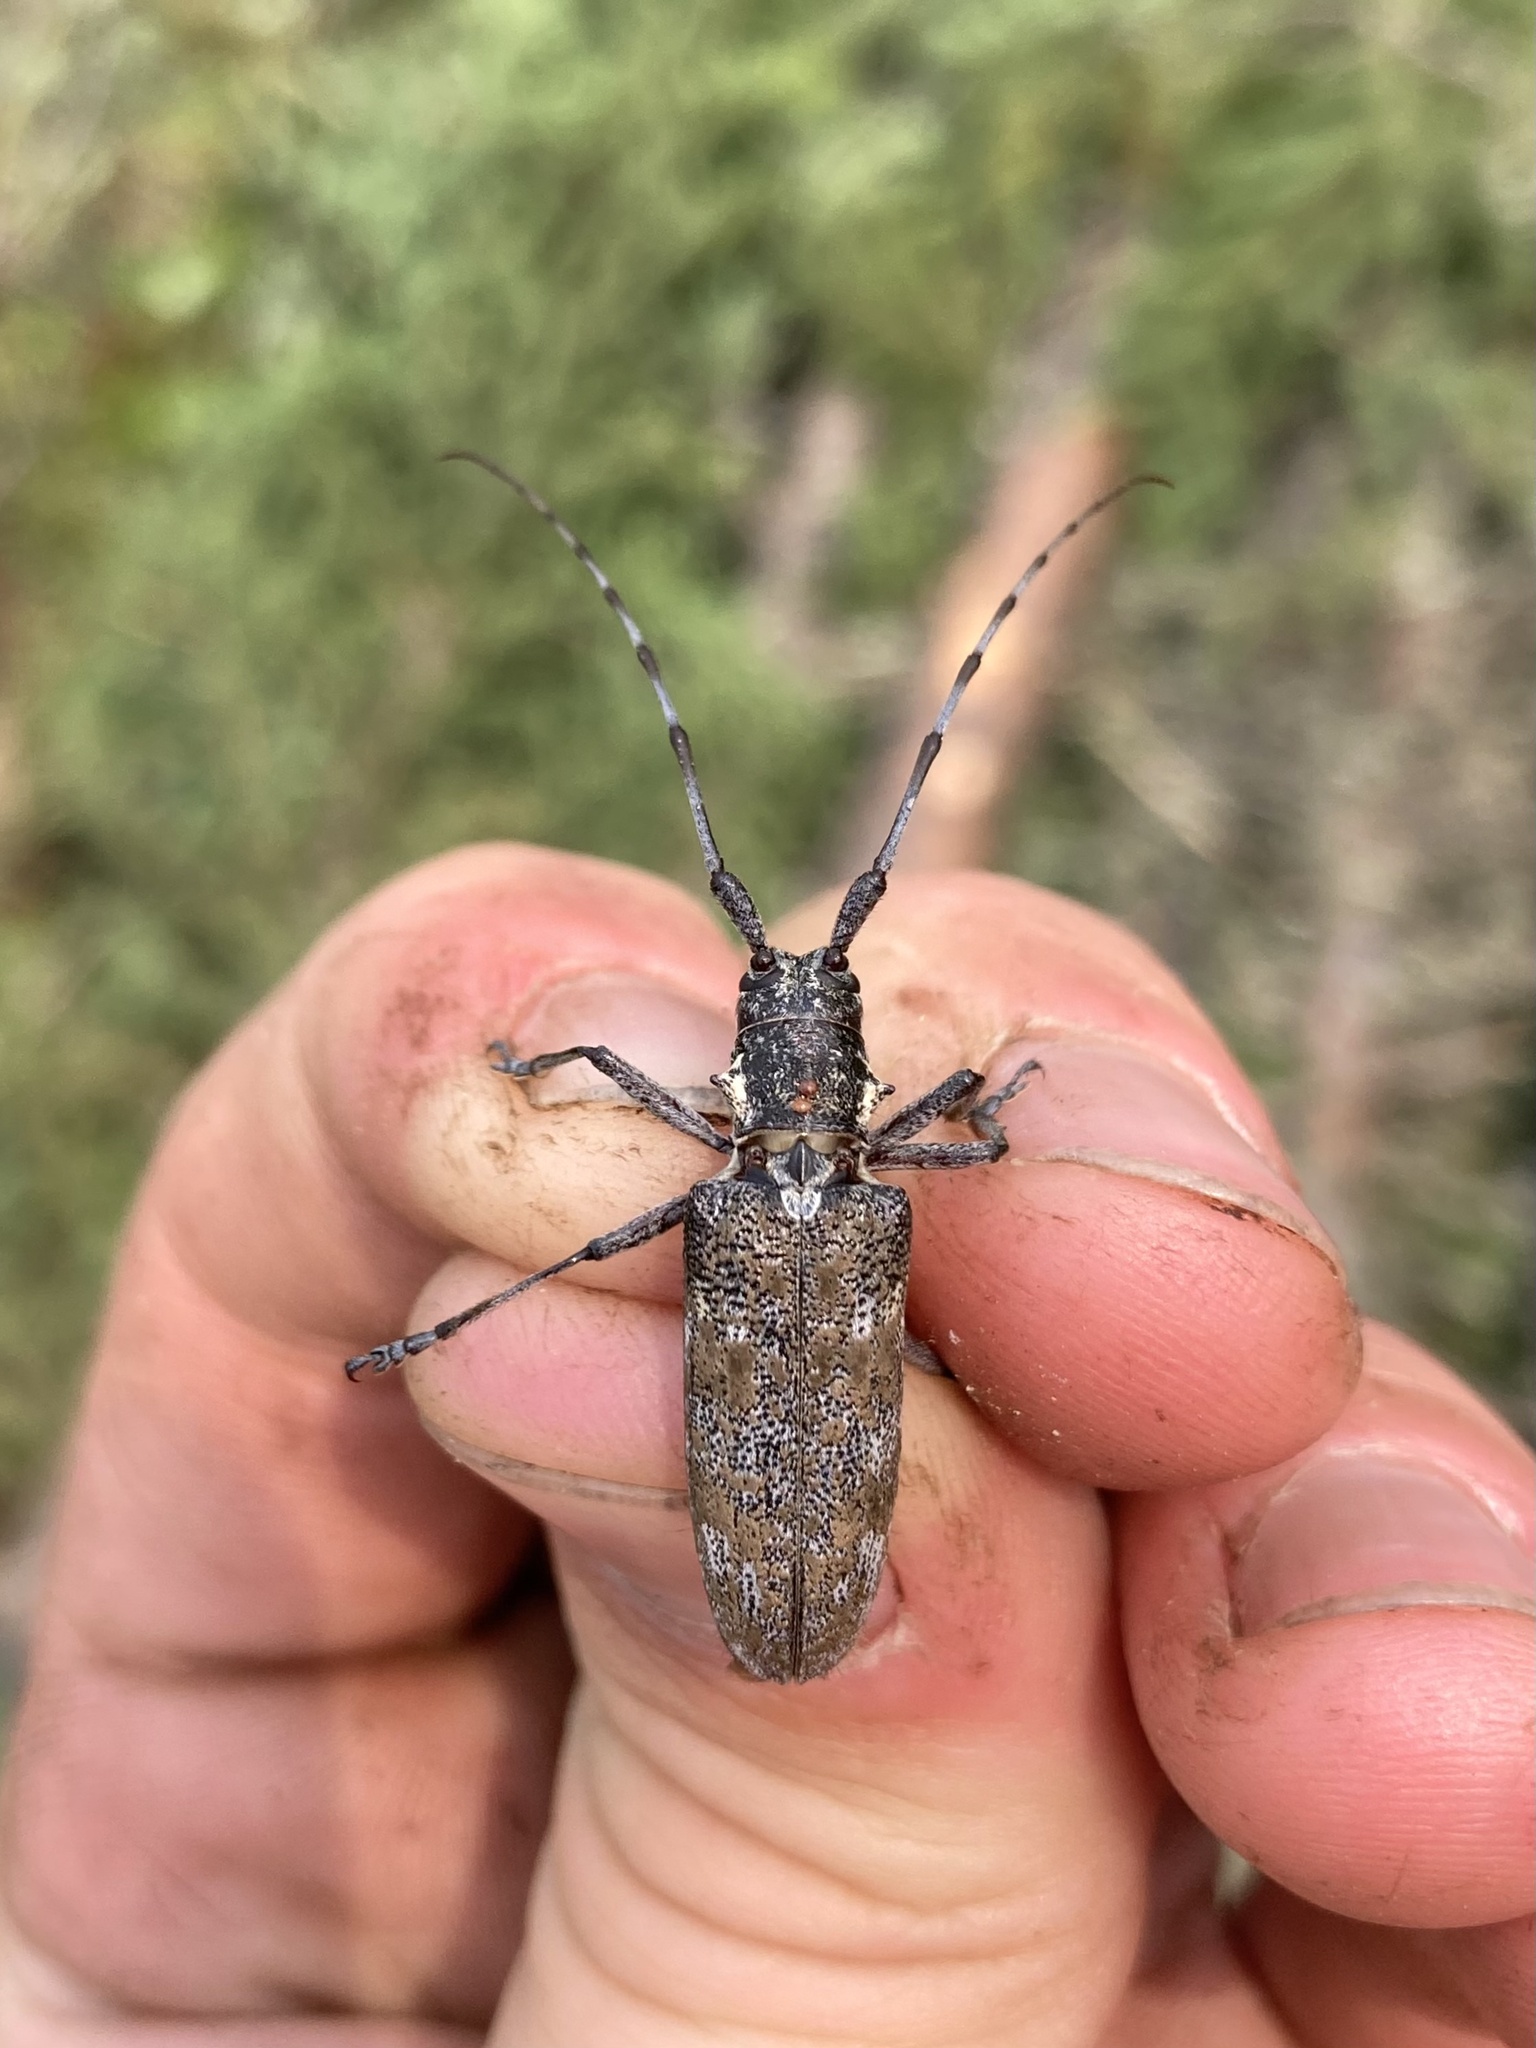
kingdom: Animalia
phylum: Arthropoda
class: Insecta
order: Coleoptera
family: Cerambycidae
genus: Monochamus
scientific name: Monochamus
